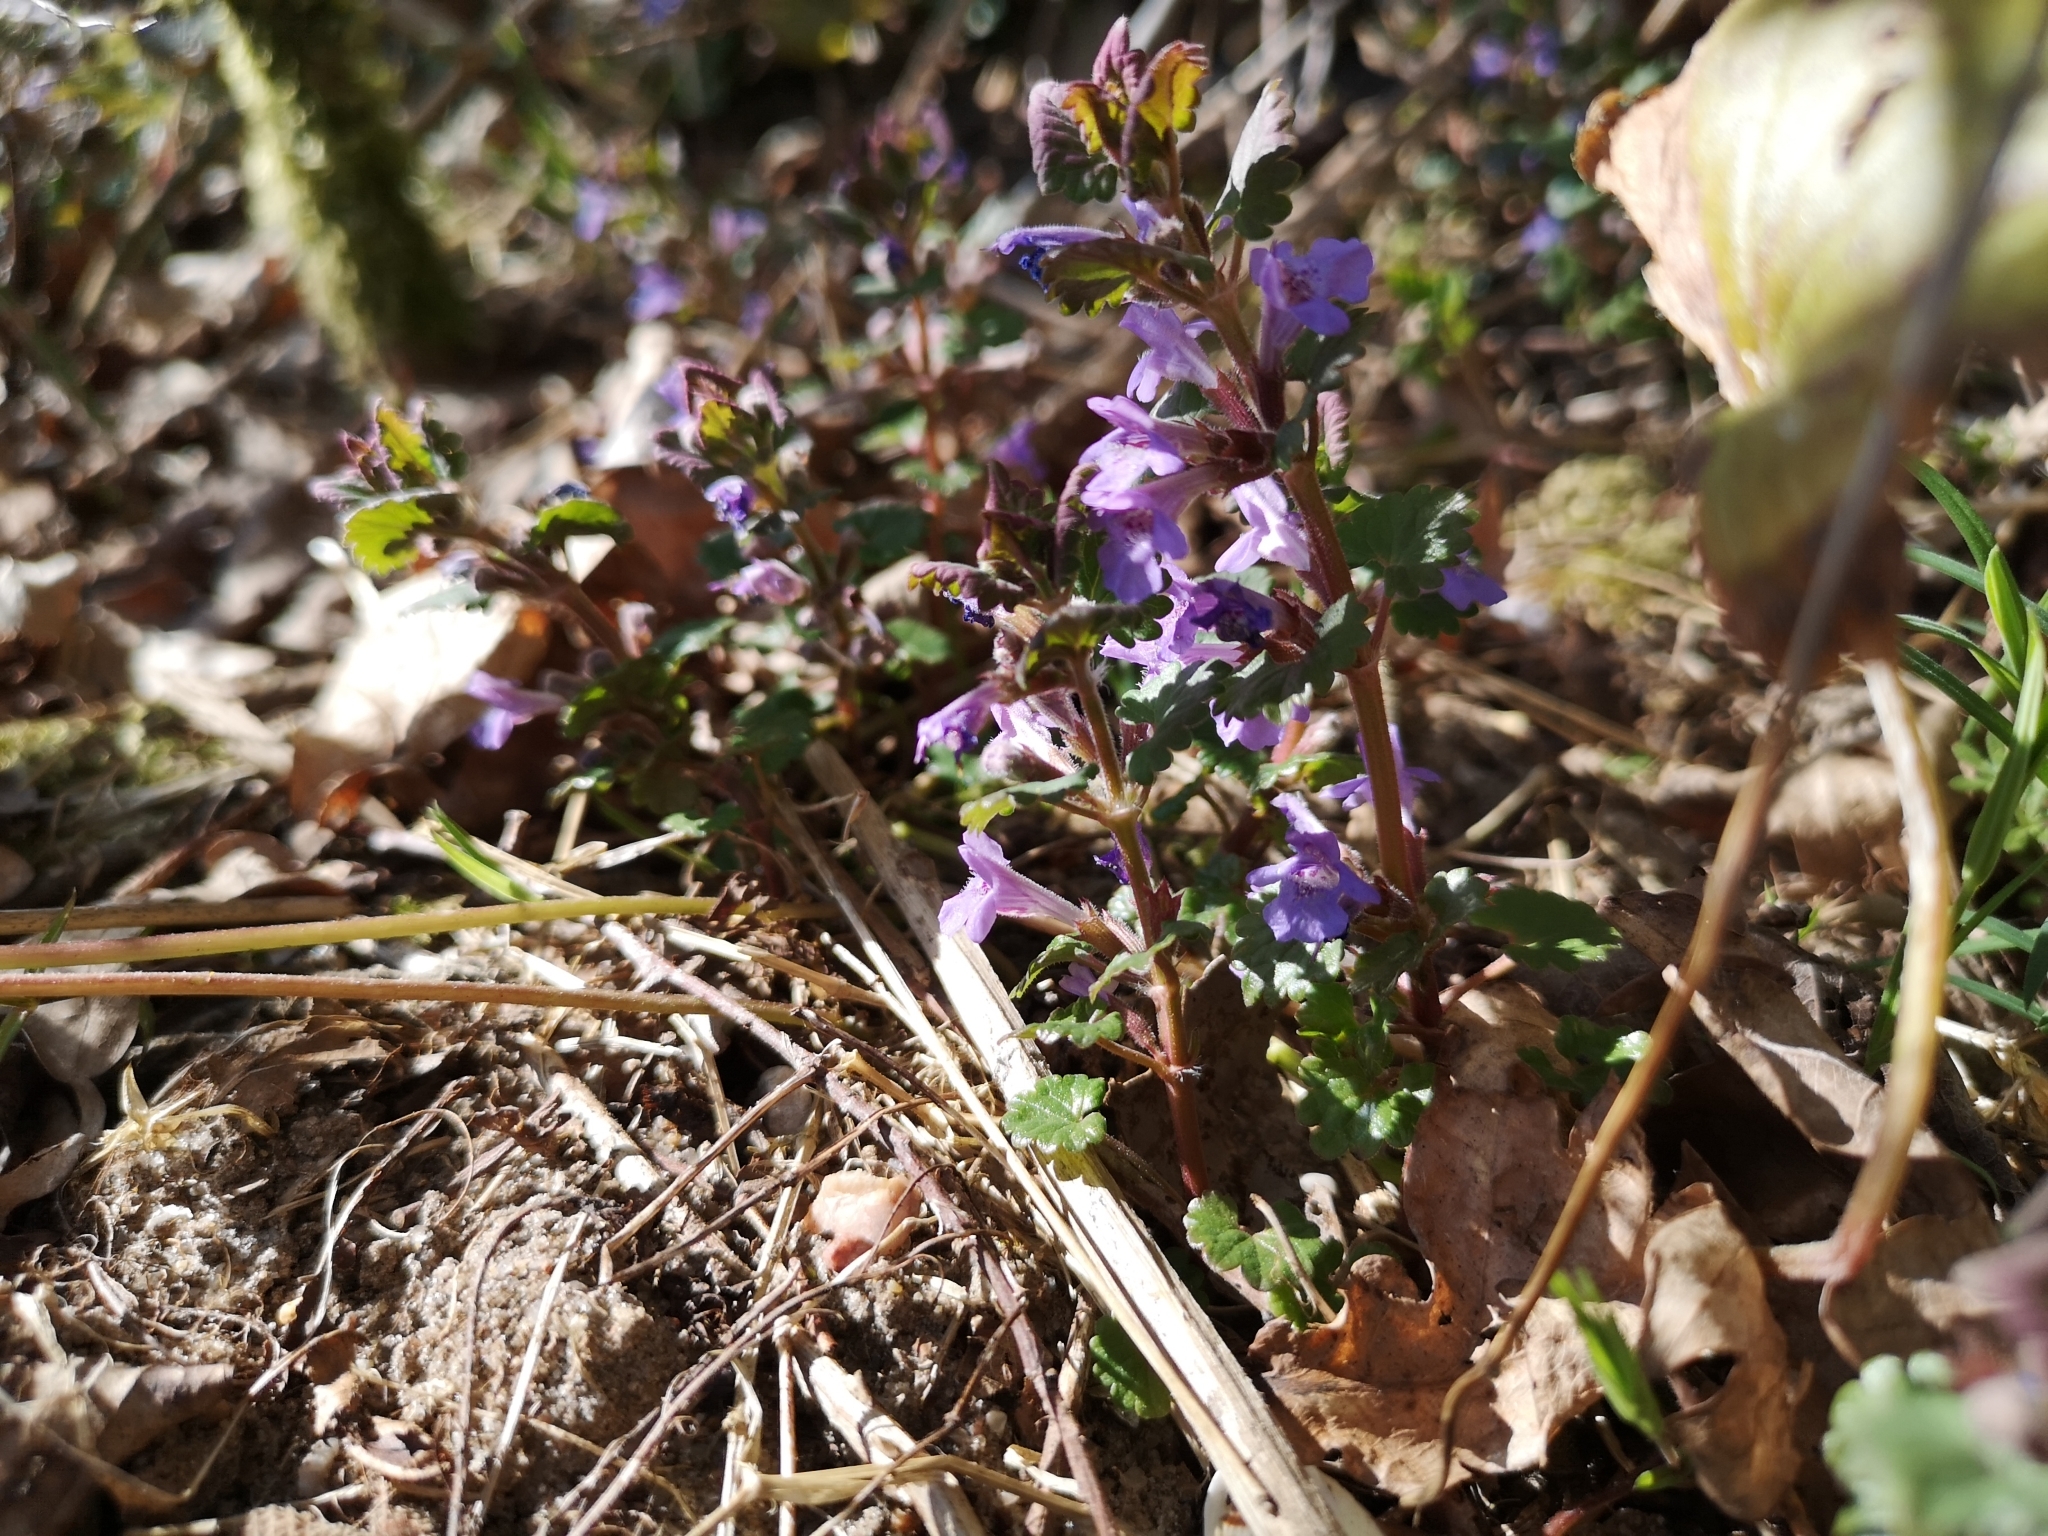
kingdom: Plantae
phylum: Tracheophyta
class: Magnoliopsida
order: Lamiales
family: Lamiaceae
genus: Glechoma
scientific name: Glechoma hederacea
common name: Ground ivy
